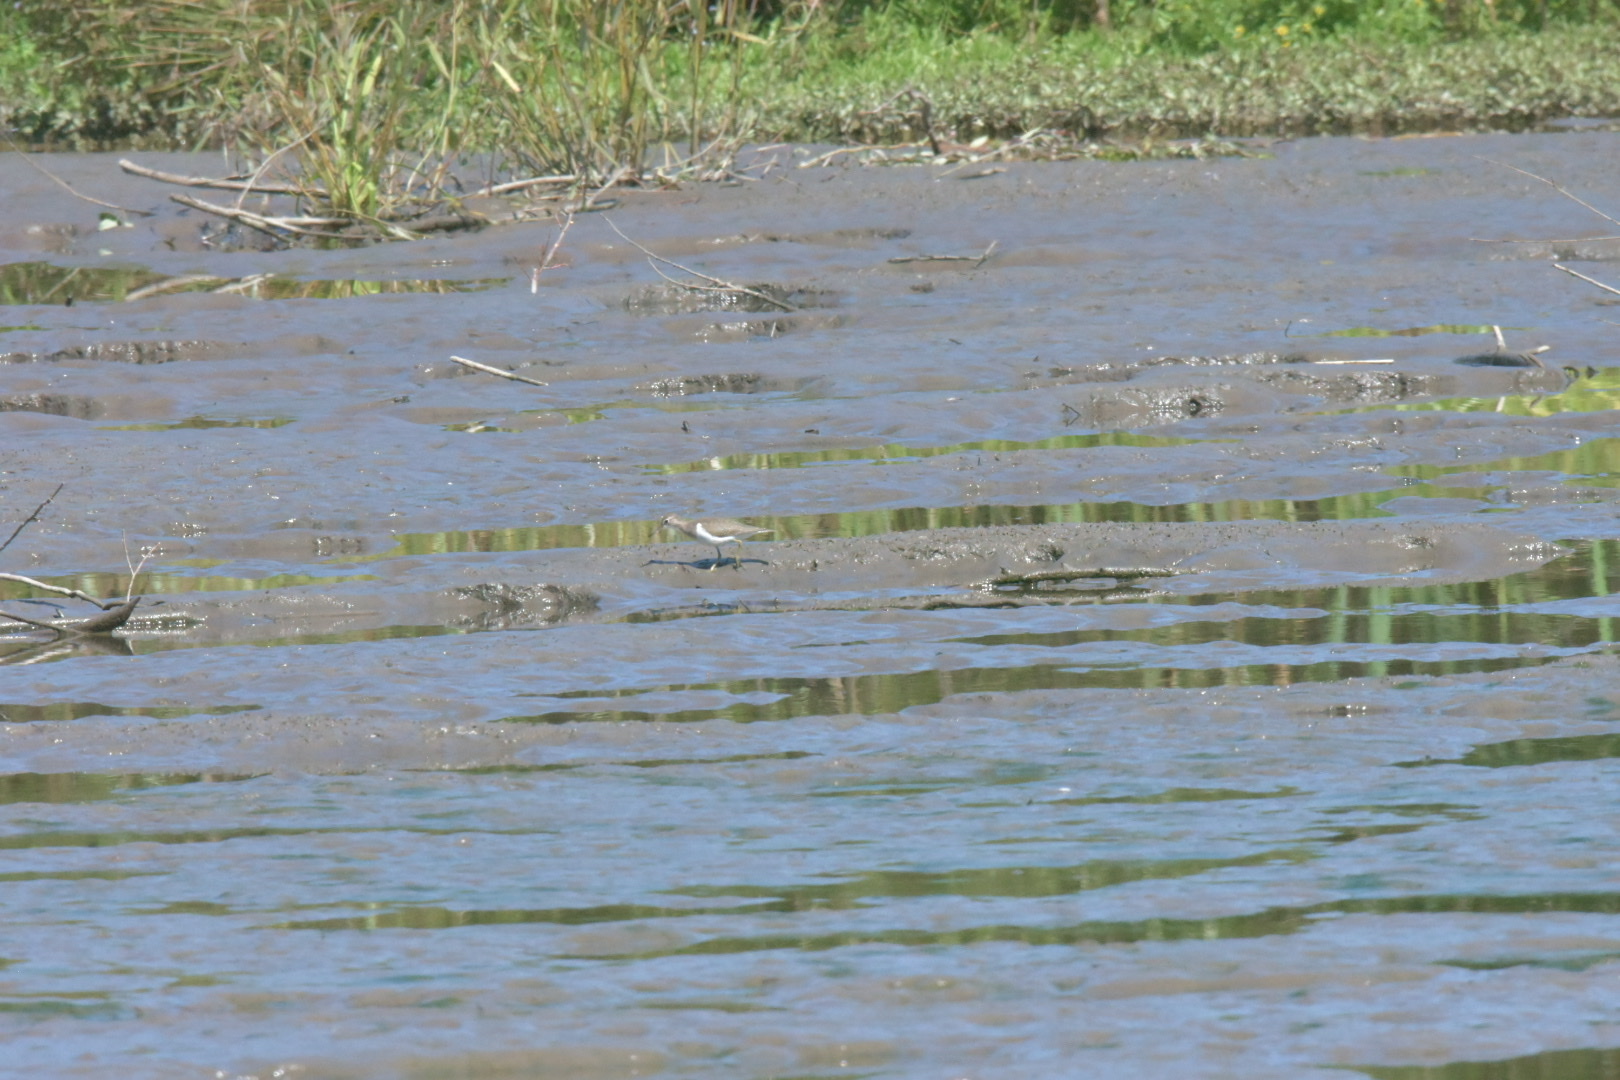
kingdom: Animalia
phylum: Chordata
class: Aves
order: Charadriiformes
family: Scolopacidae
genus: Actitis
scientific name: Actitis hypoleucos
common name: Common sandpiper
